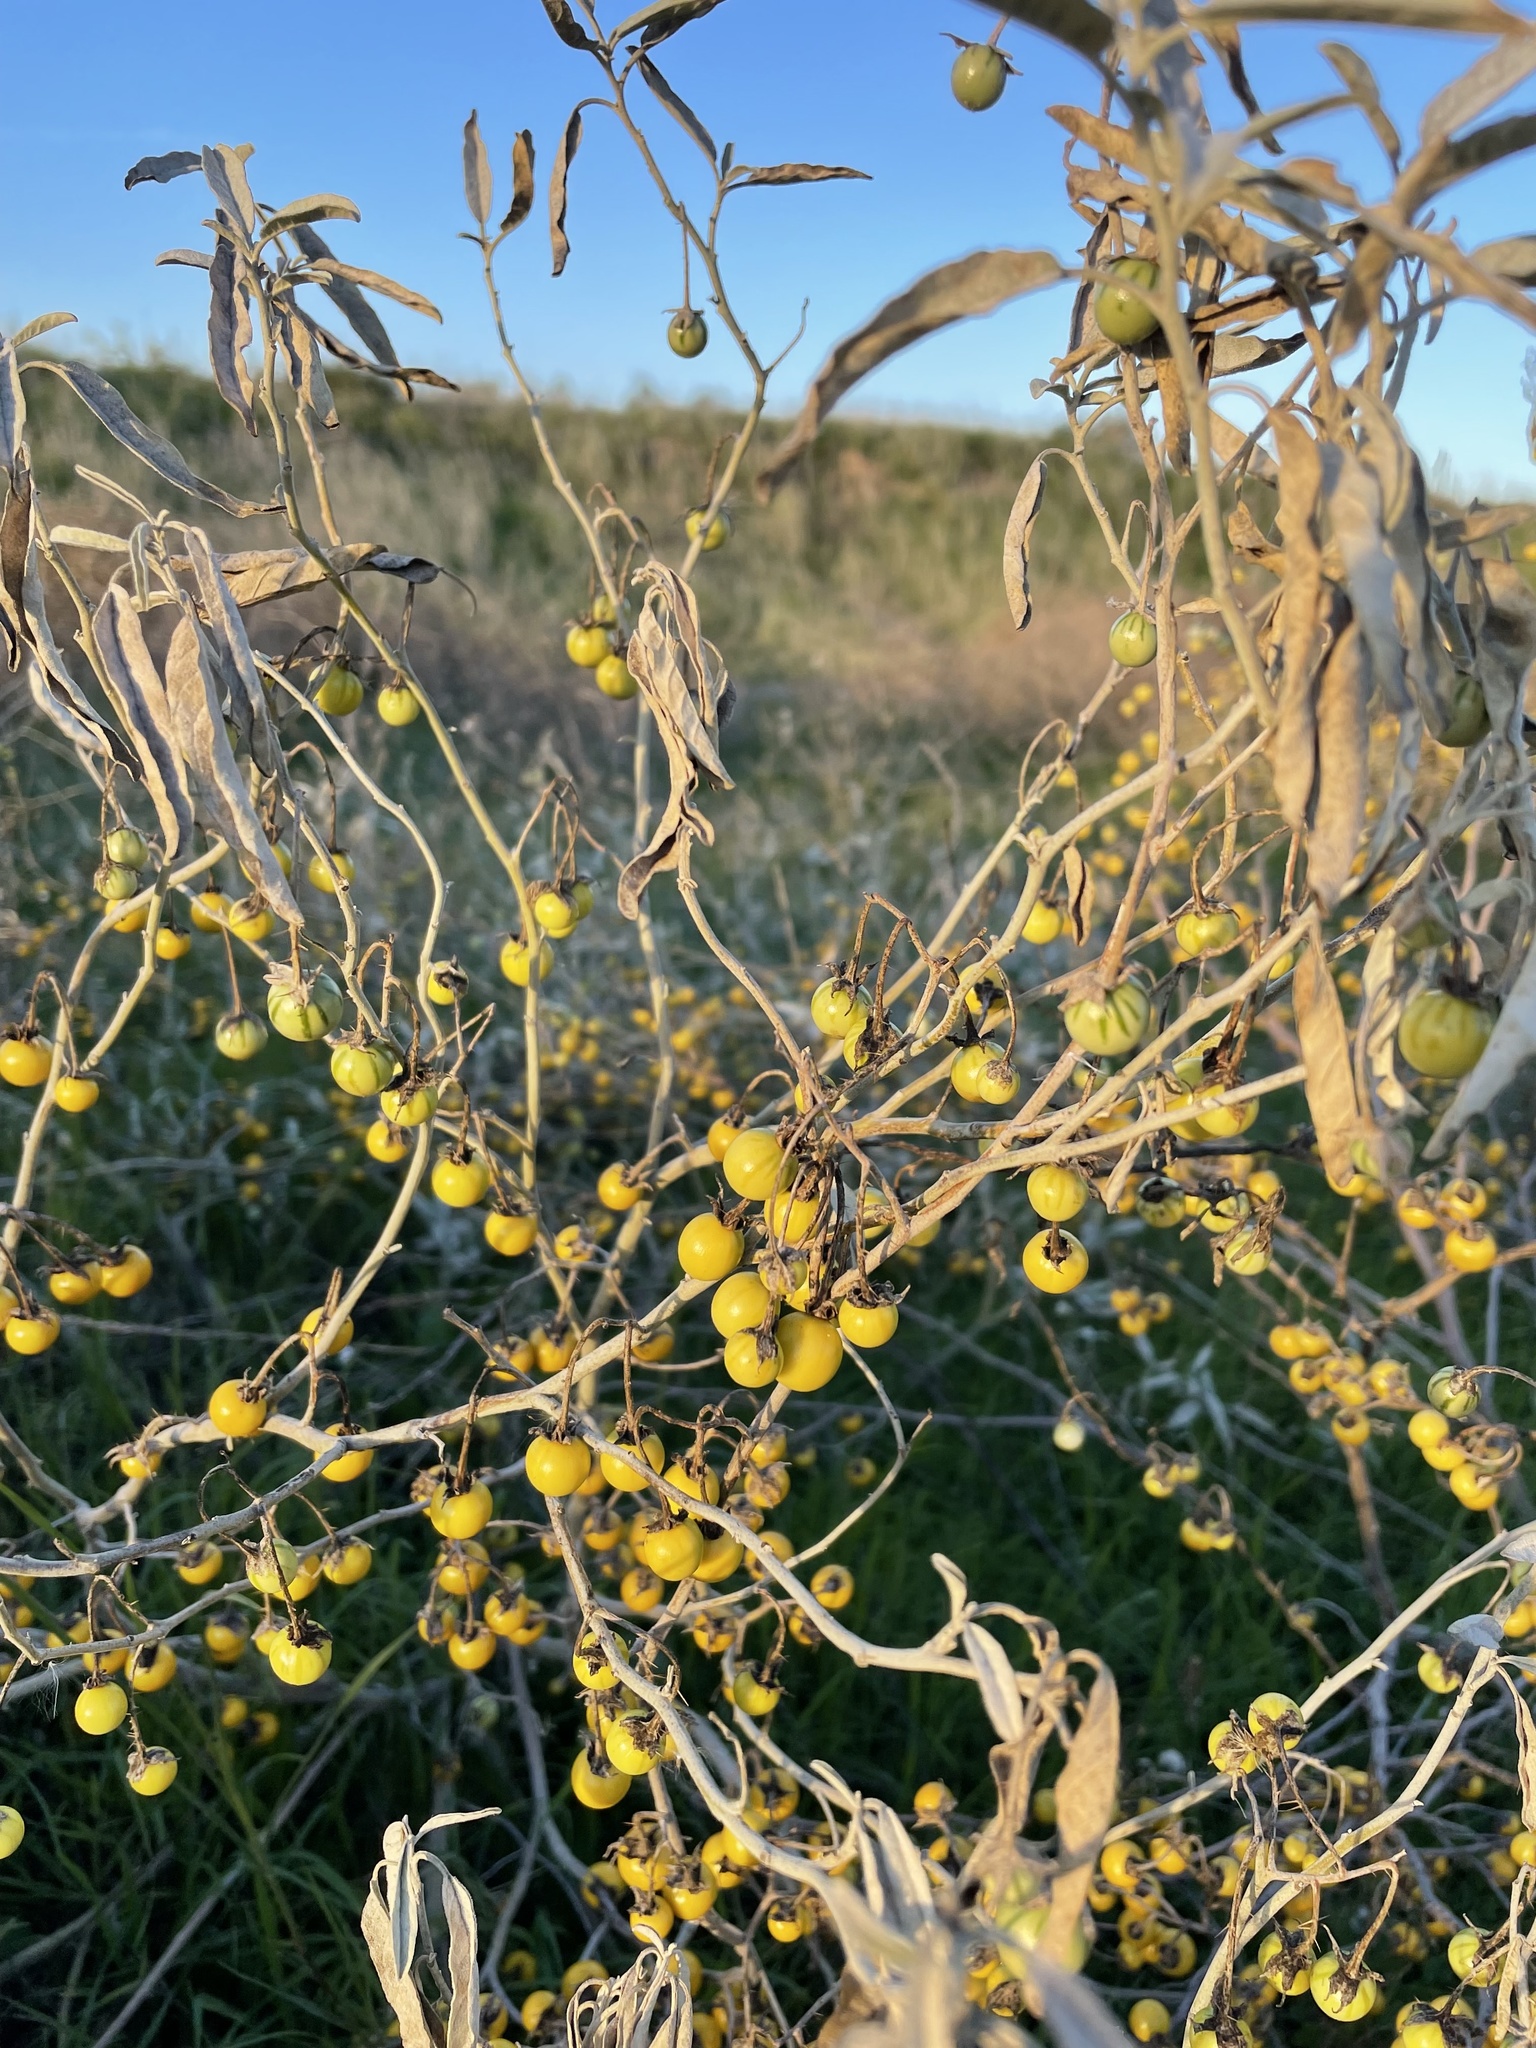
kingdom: Plantae
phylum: Tracheophyta
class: Magnoliopsida
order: Solanales
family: Solanaceae
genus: Solanum
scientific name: Solanum elaeagnifolium
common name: Silverleaf nightshade
